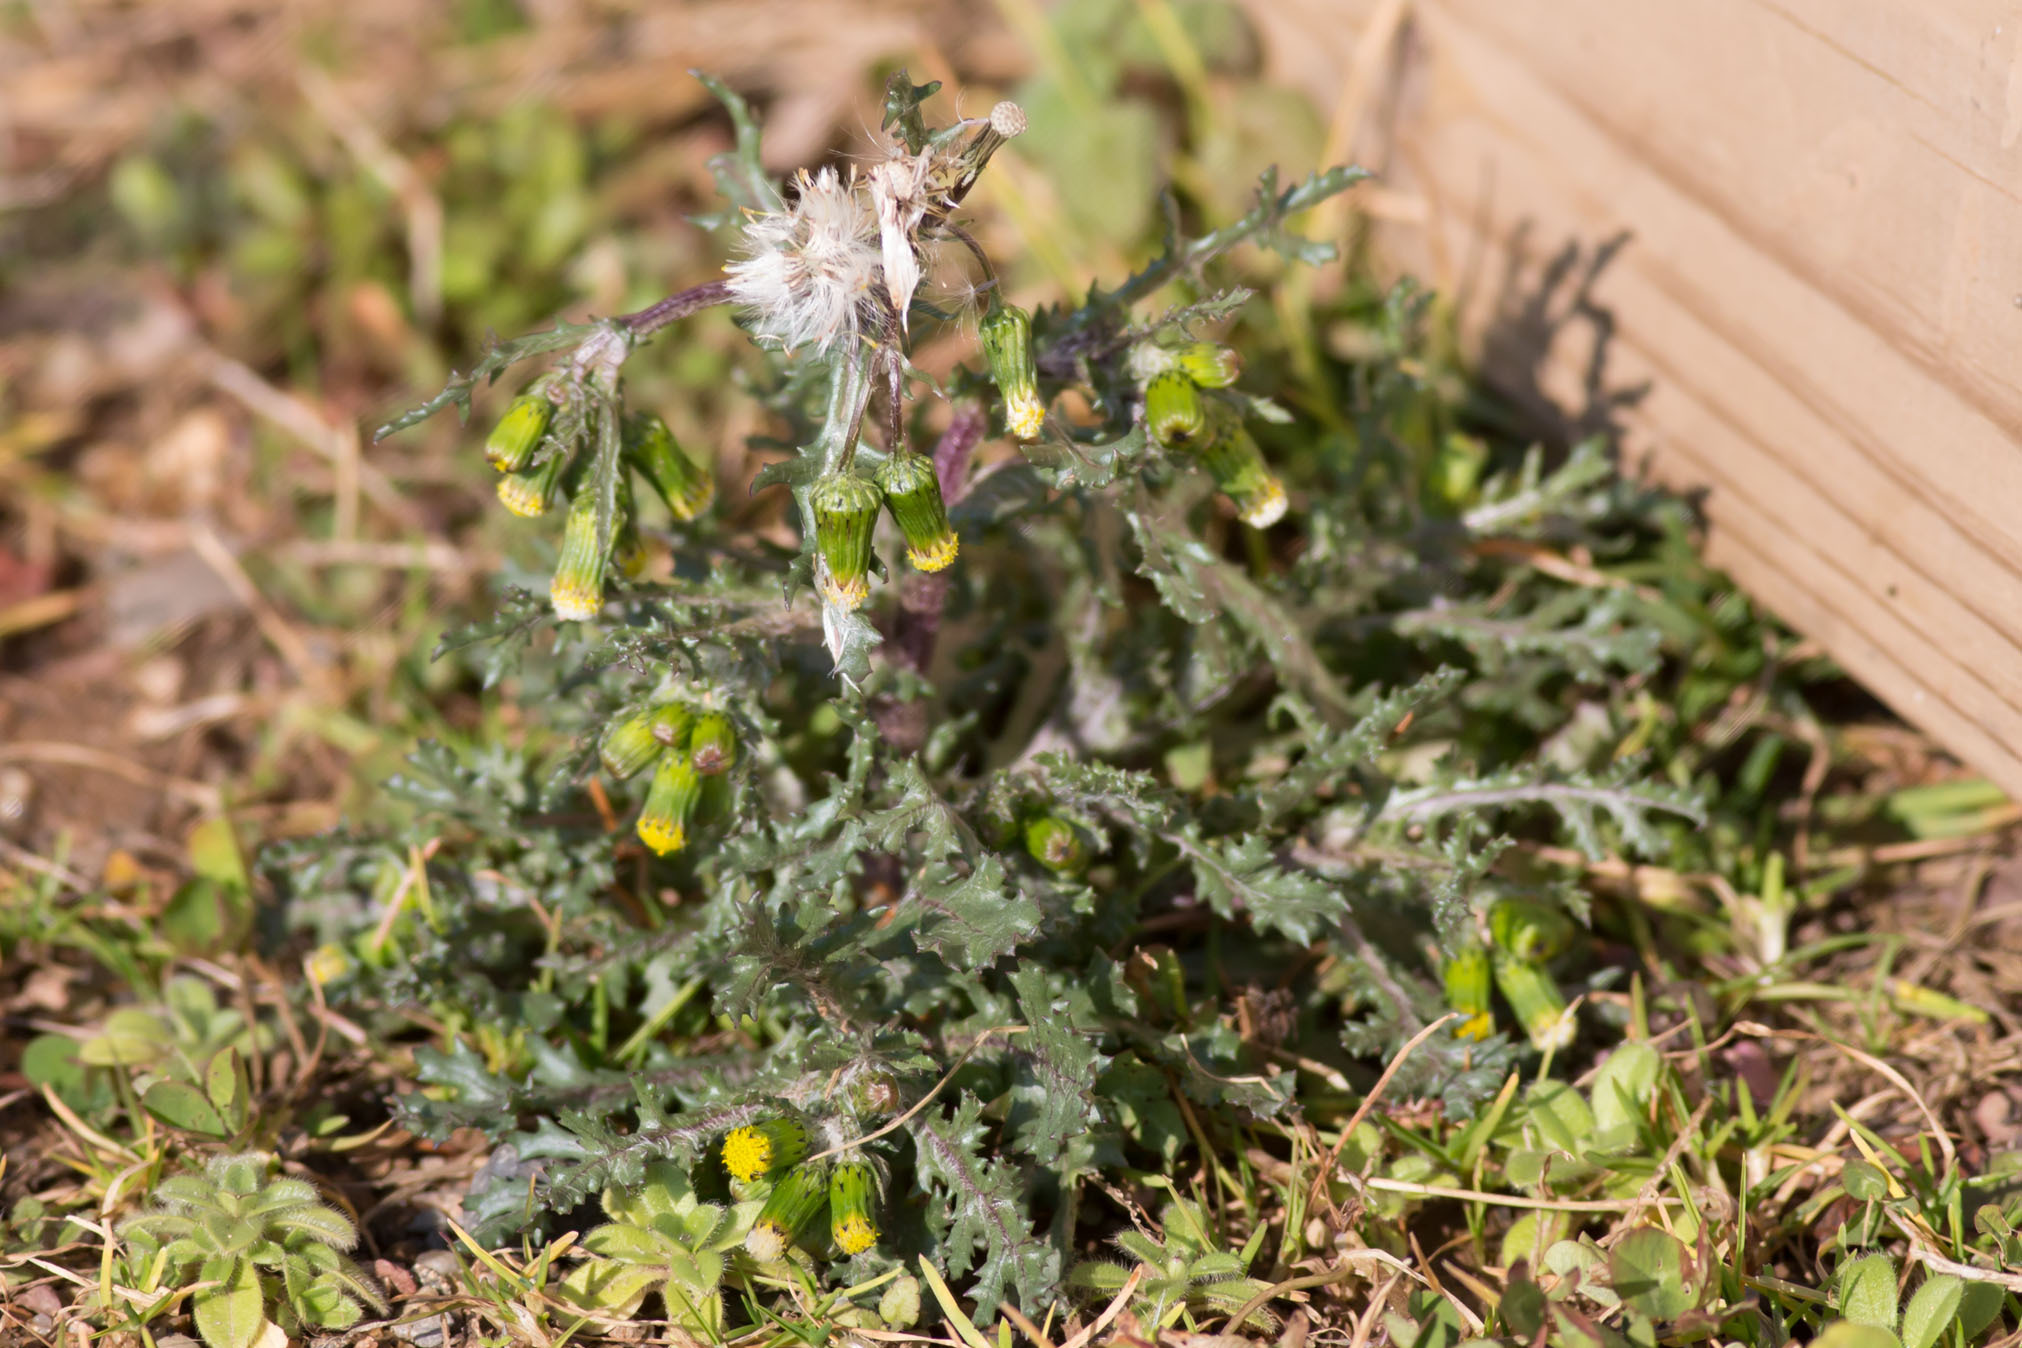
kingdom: Plantae
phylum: Tracheophyta
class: Magnoliopsida
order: Asterales
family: Asteraceae
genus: Senecio
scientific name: Senecio vulgaris
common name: Old-man-in-the-spring
